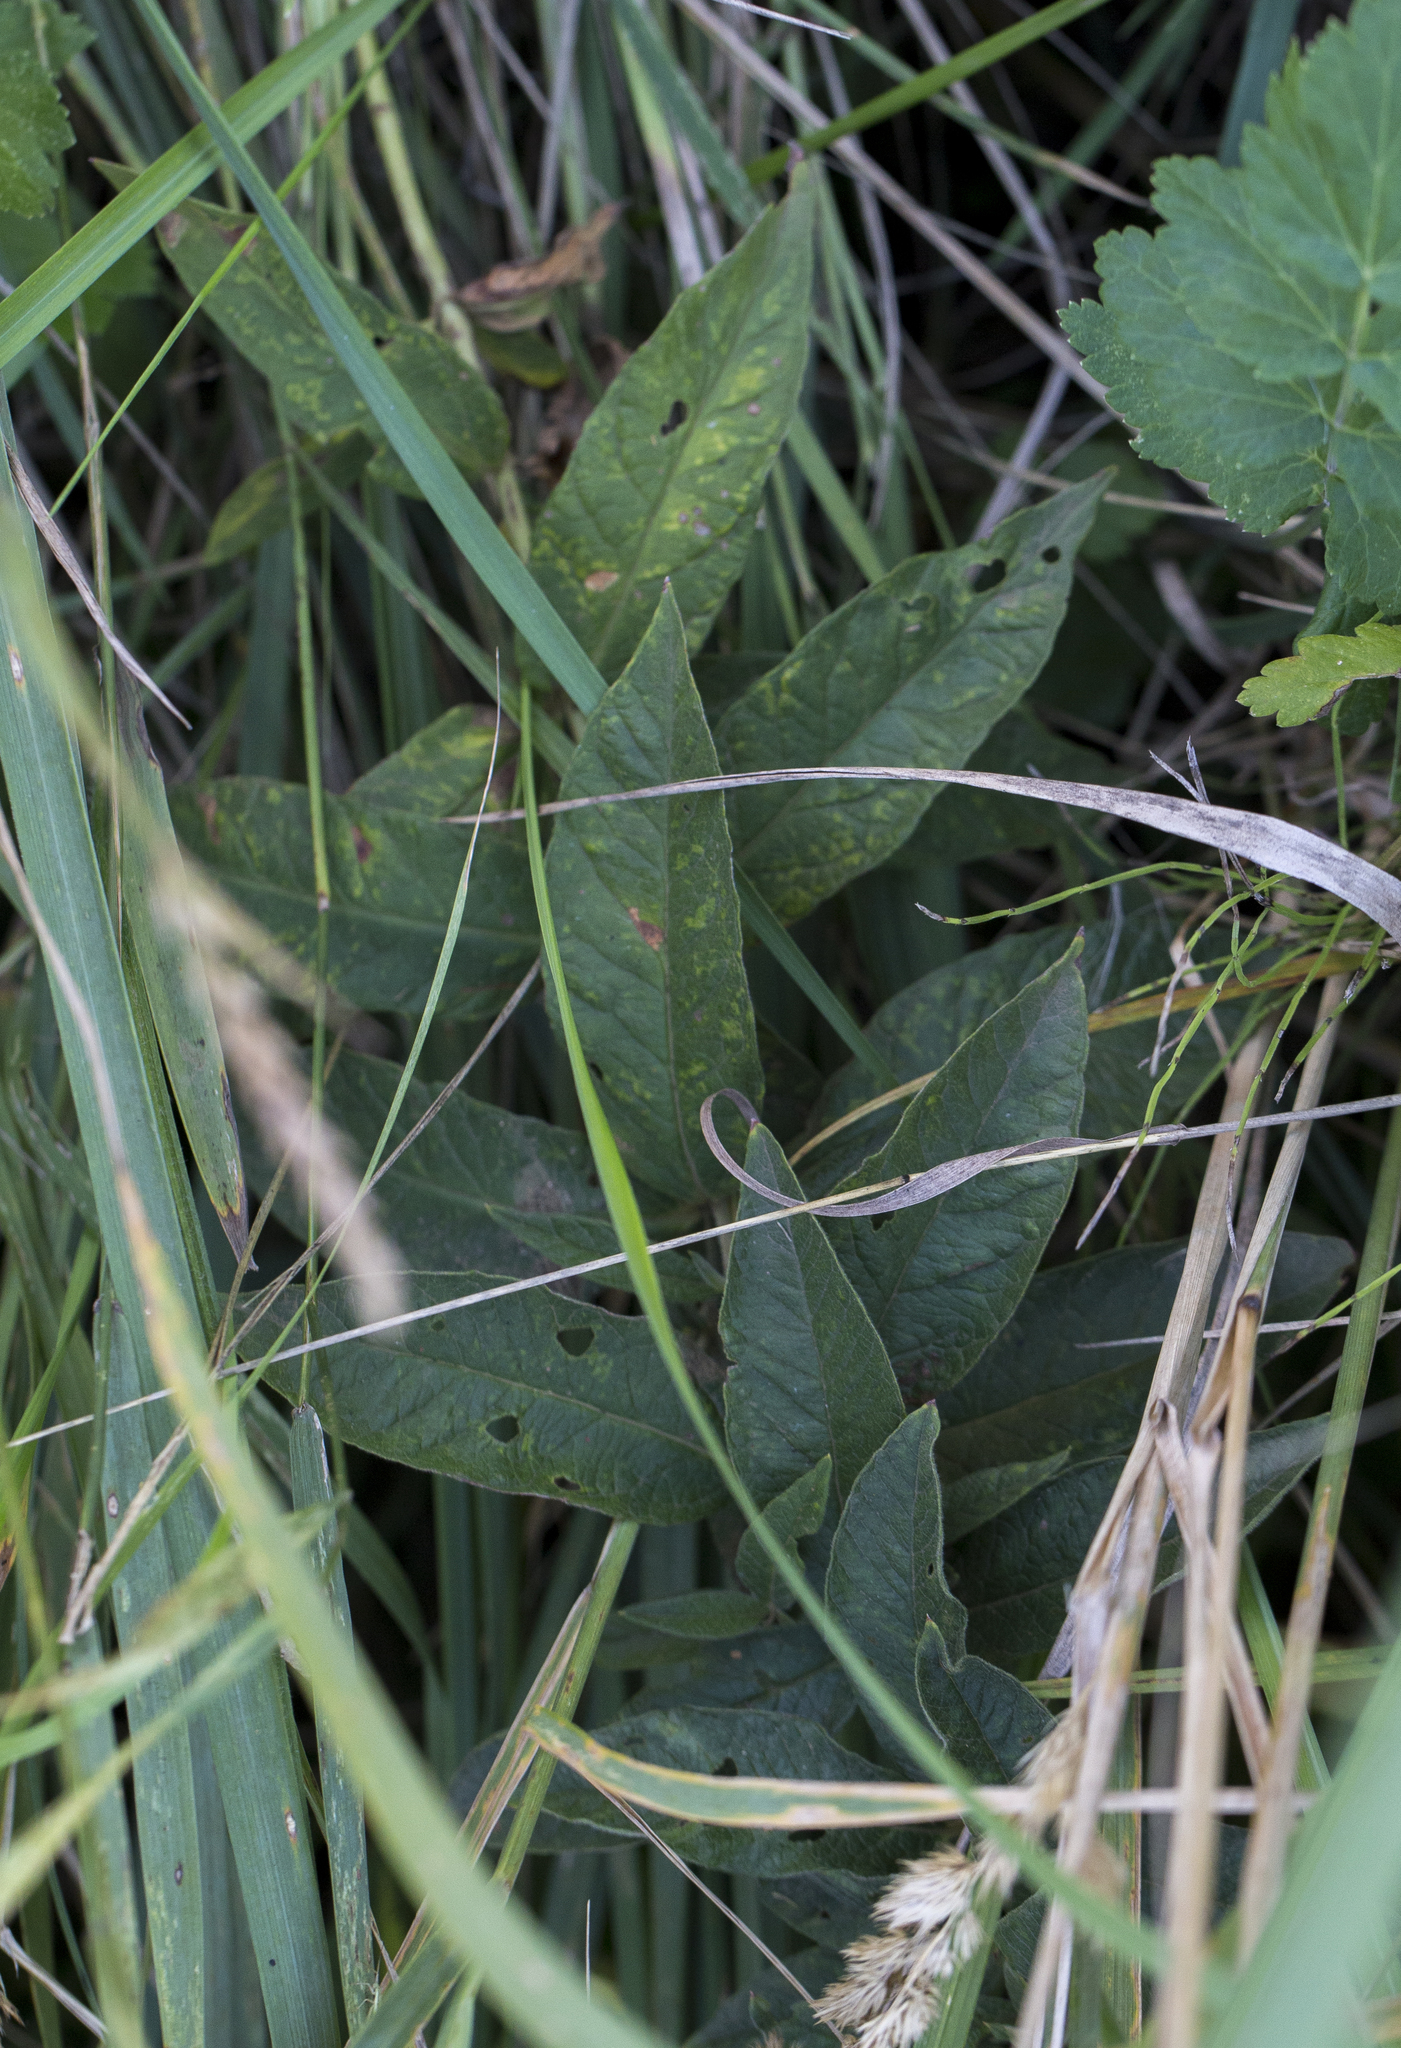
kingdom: Plantae
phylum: Tracheophyta
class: Magnoliopsida
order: Ericales
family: Primulaceae
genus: Lysimachia
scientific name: Lysimachia vulgaris
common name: Yellow loosestrife
